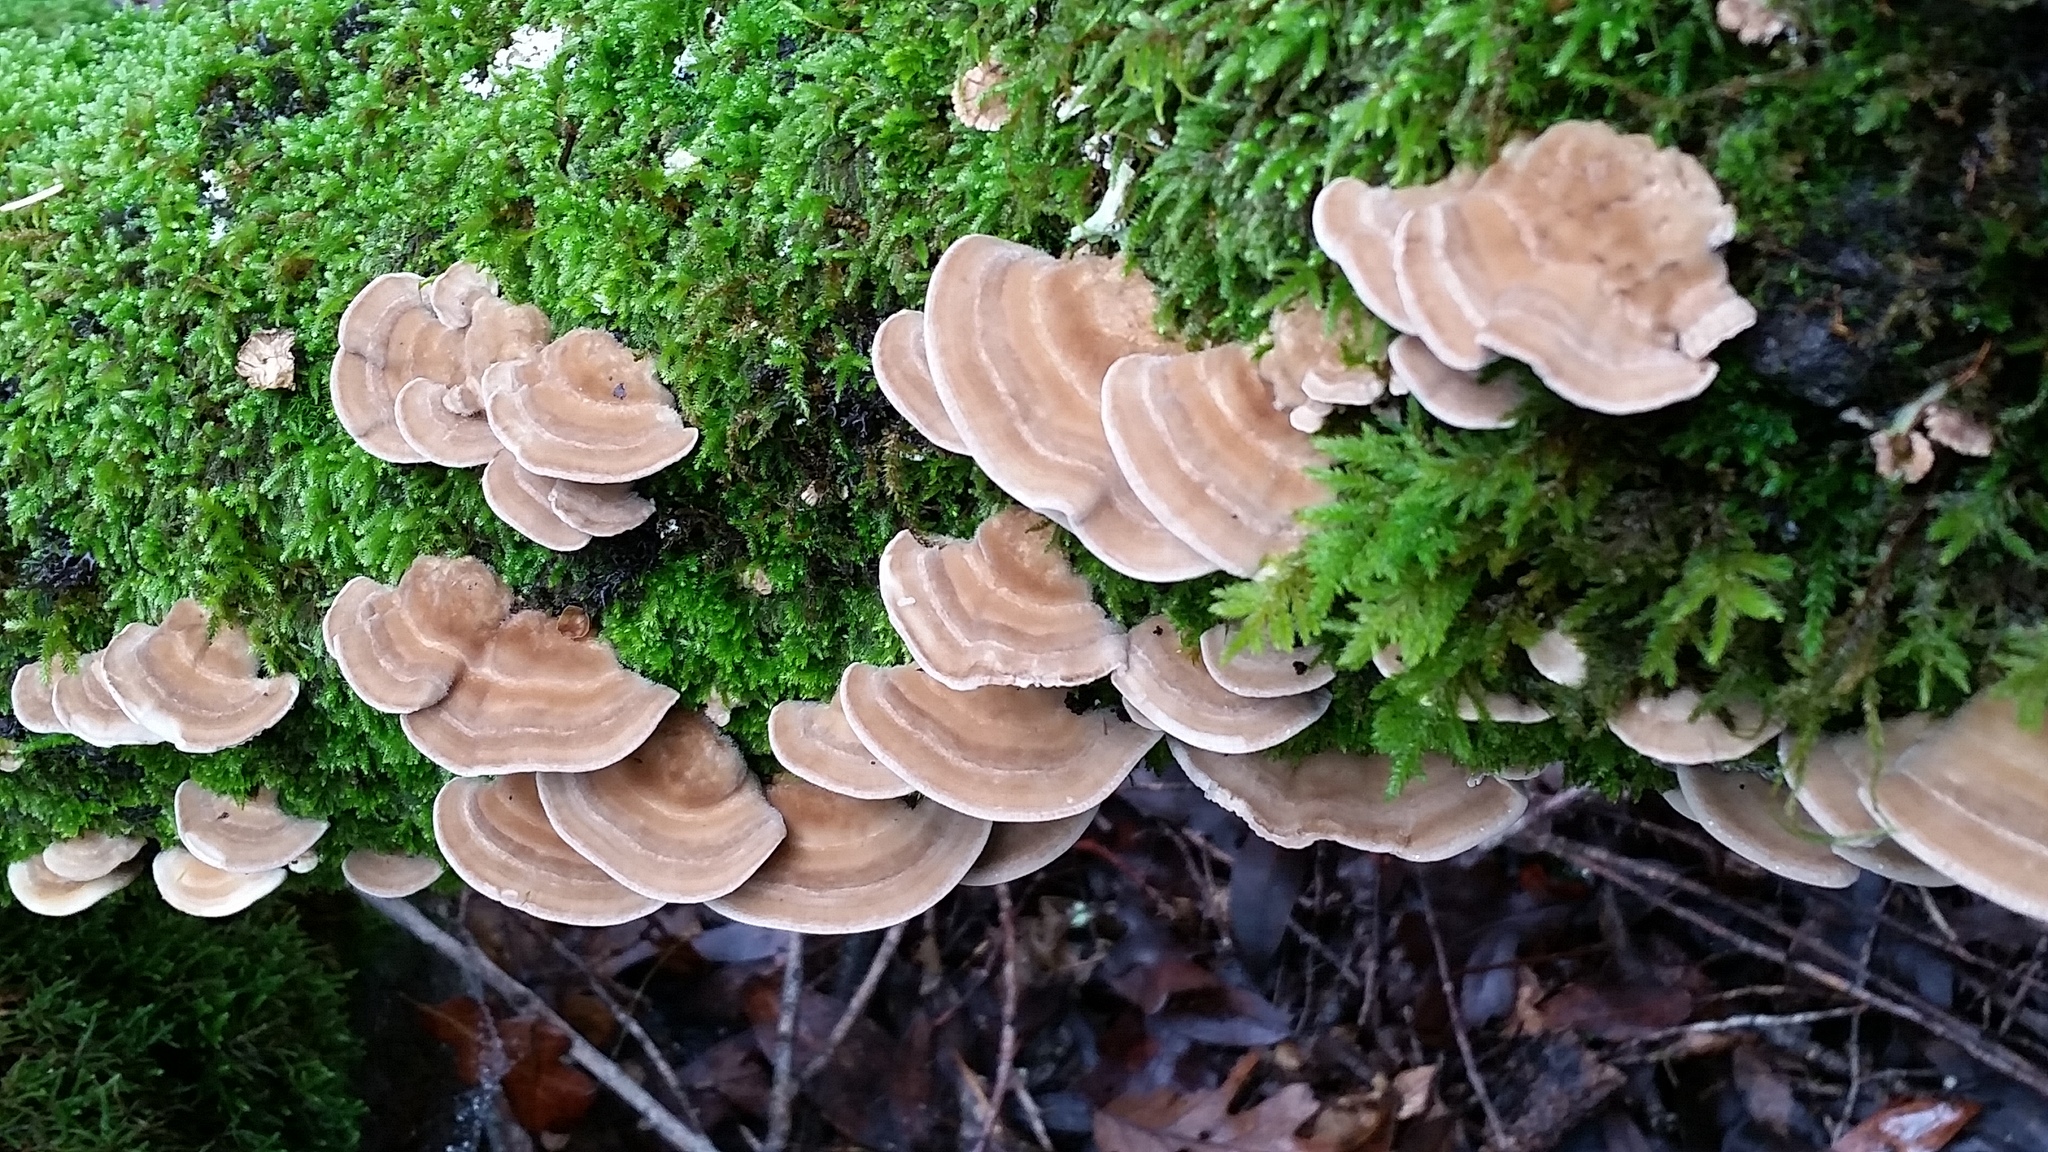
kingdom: Fungi
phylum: Basidiomycota
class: Agaricomycetes
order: Polyporales
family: Polyporaceae
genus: Lenzites
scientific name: Lenzites betulinus
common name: Birch mazegill
